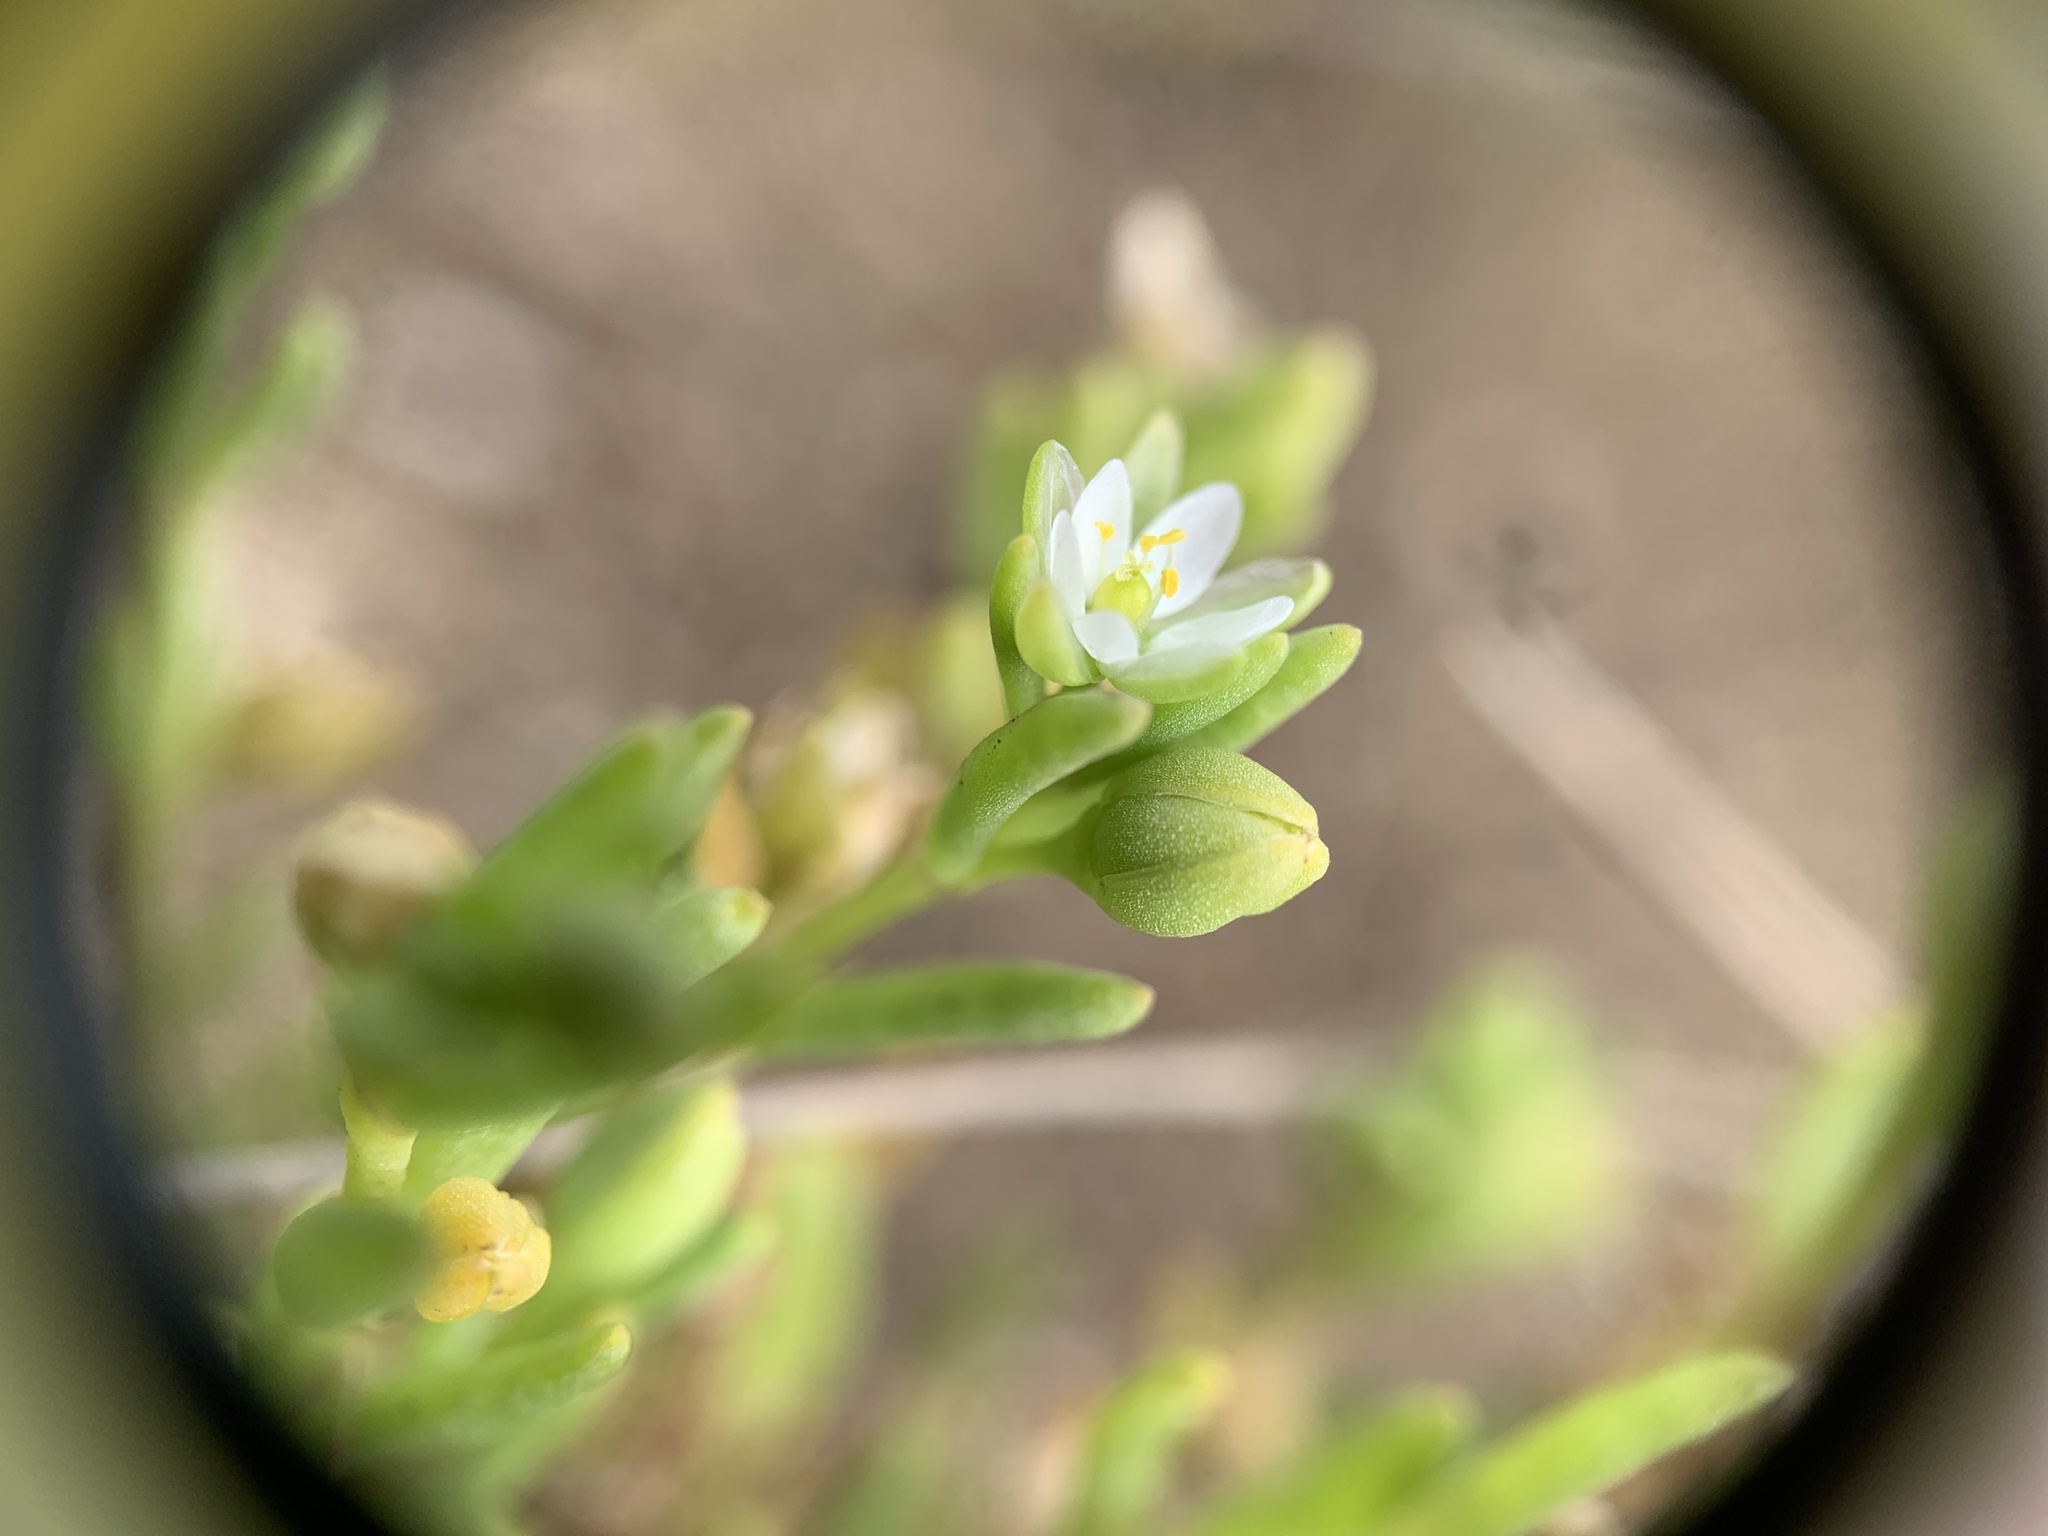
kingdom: Plantae
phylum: Tracheophyta
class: Magnoliopsida
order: Caryophyllales
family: Caryophyllaceae
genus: Spergularia
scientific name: Spergularia canadensis
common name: Canada sand-spurrey
